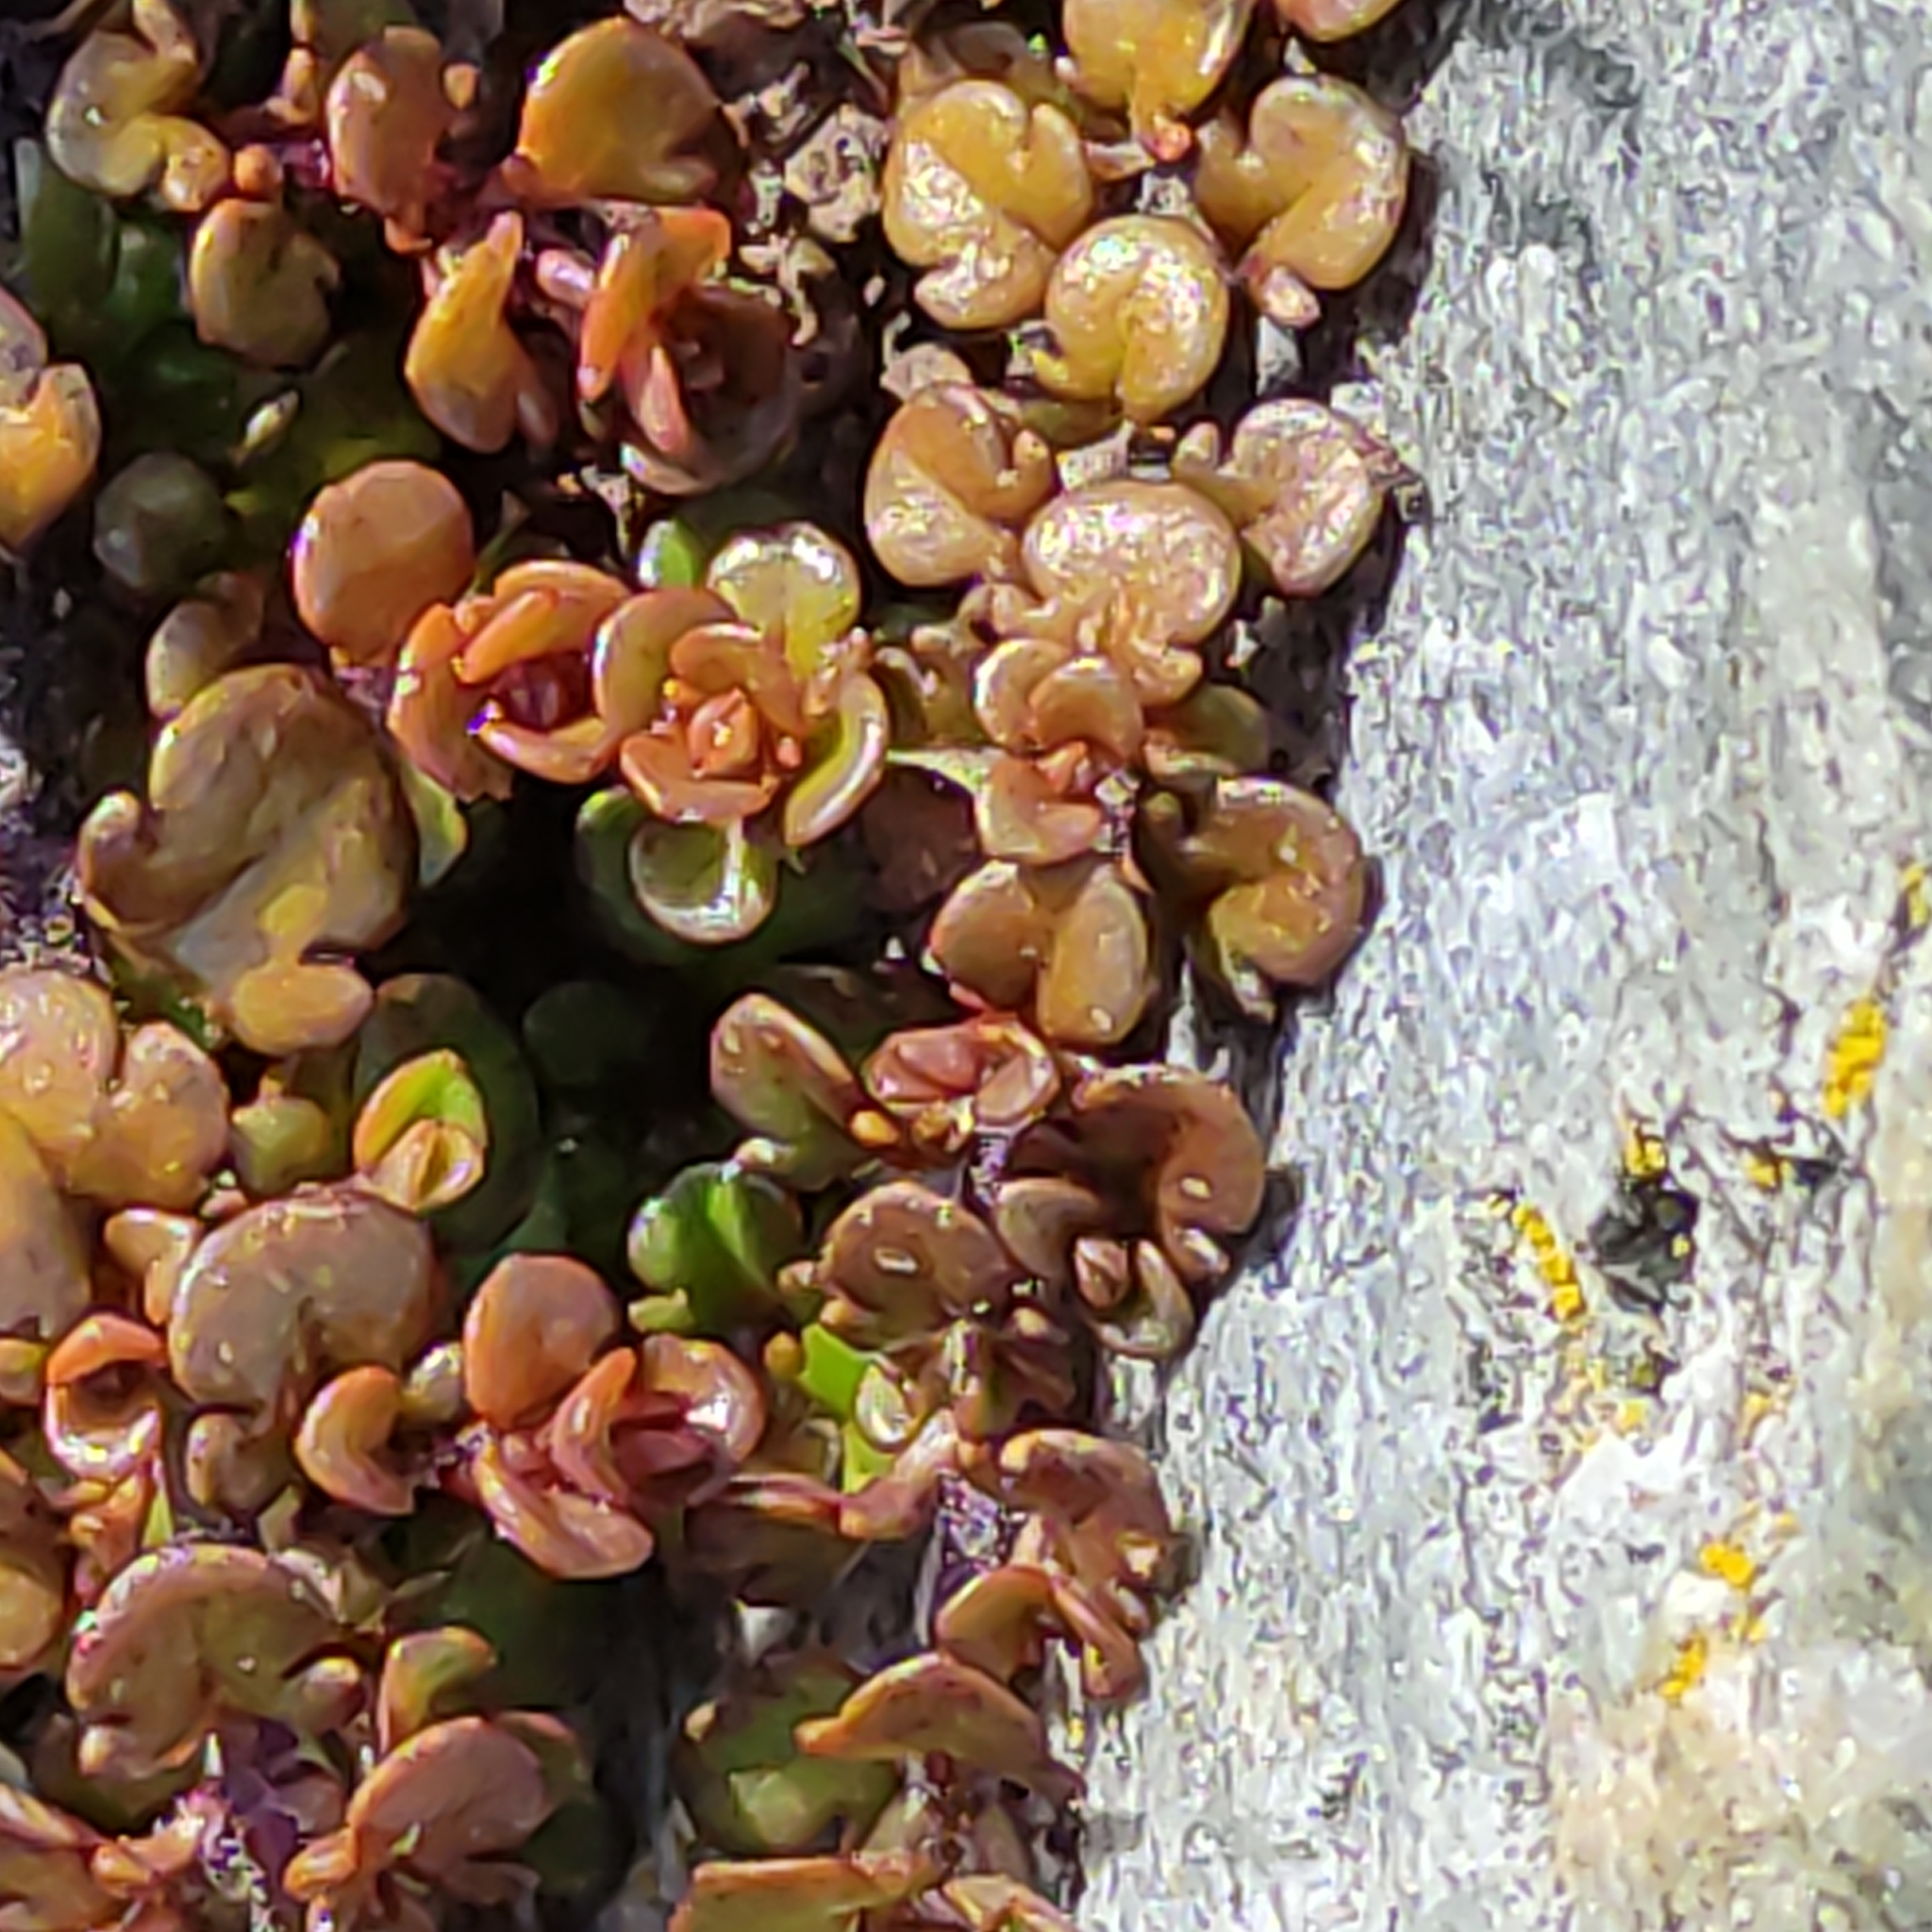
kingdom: Plantae
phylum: Tracheophyta
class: Magnoliopsida
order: Lamiales
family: Plantaginaceae
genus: Veronica
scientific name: Veronica decora
